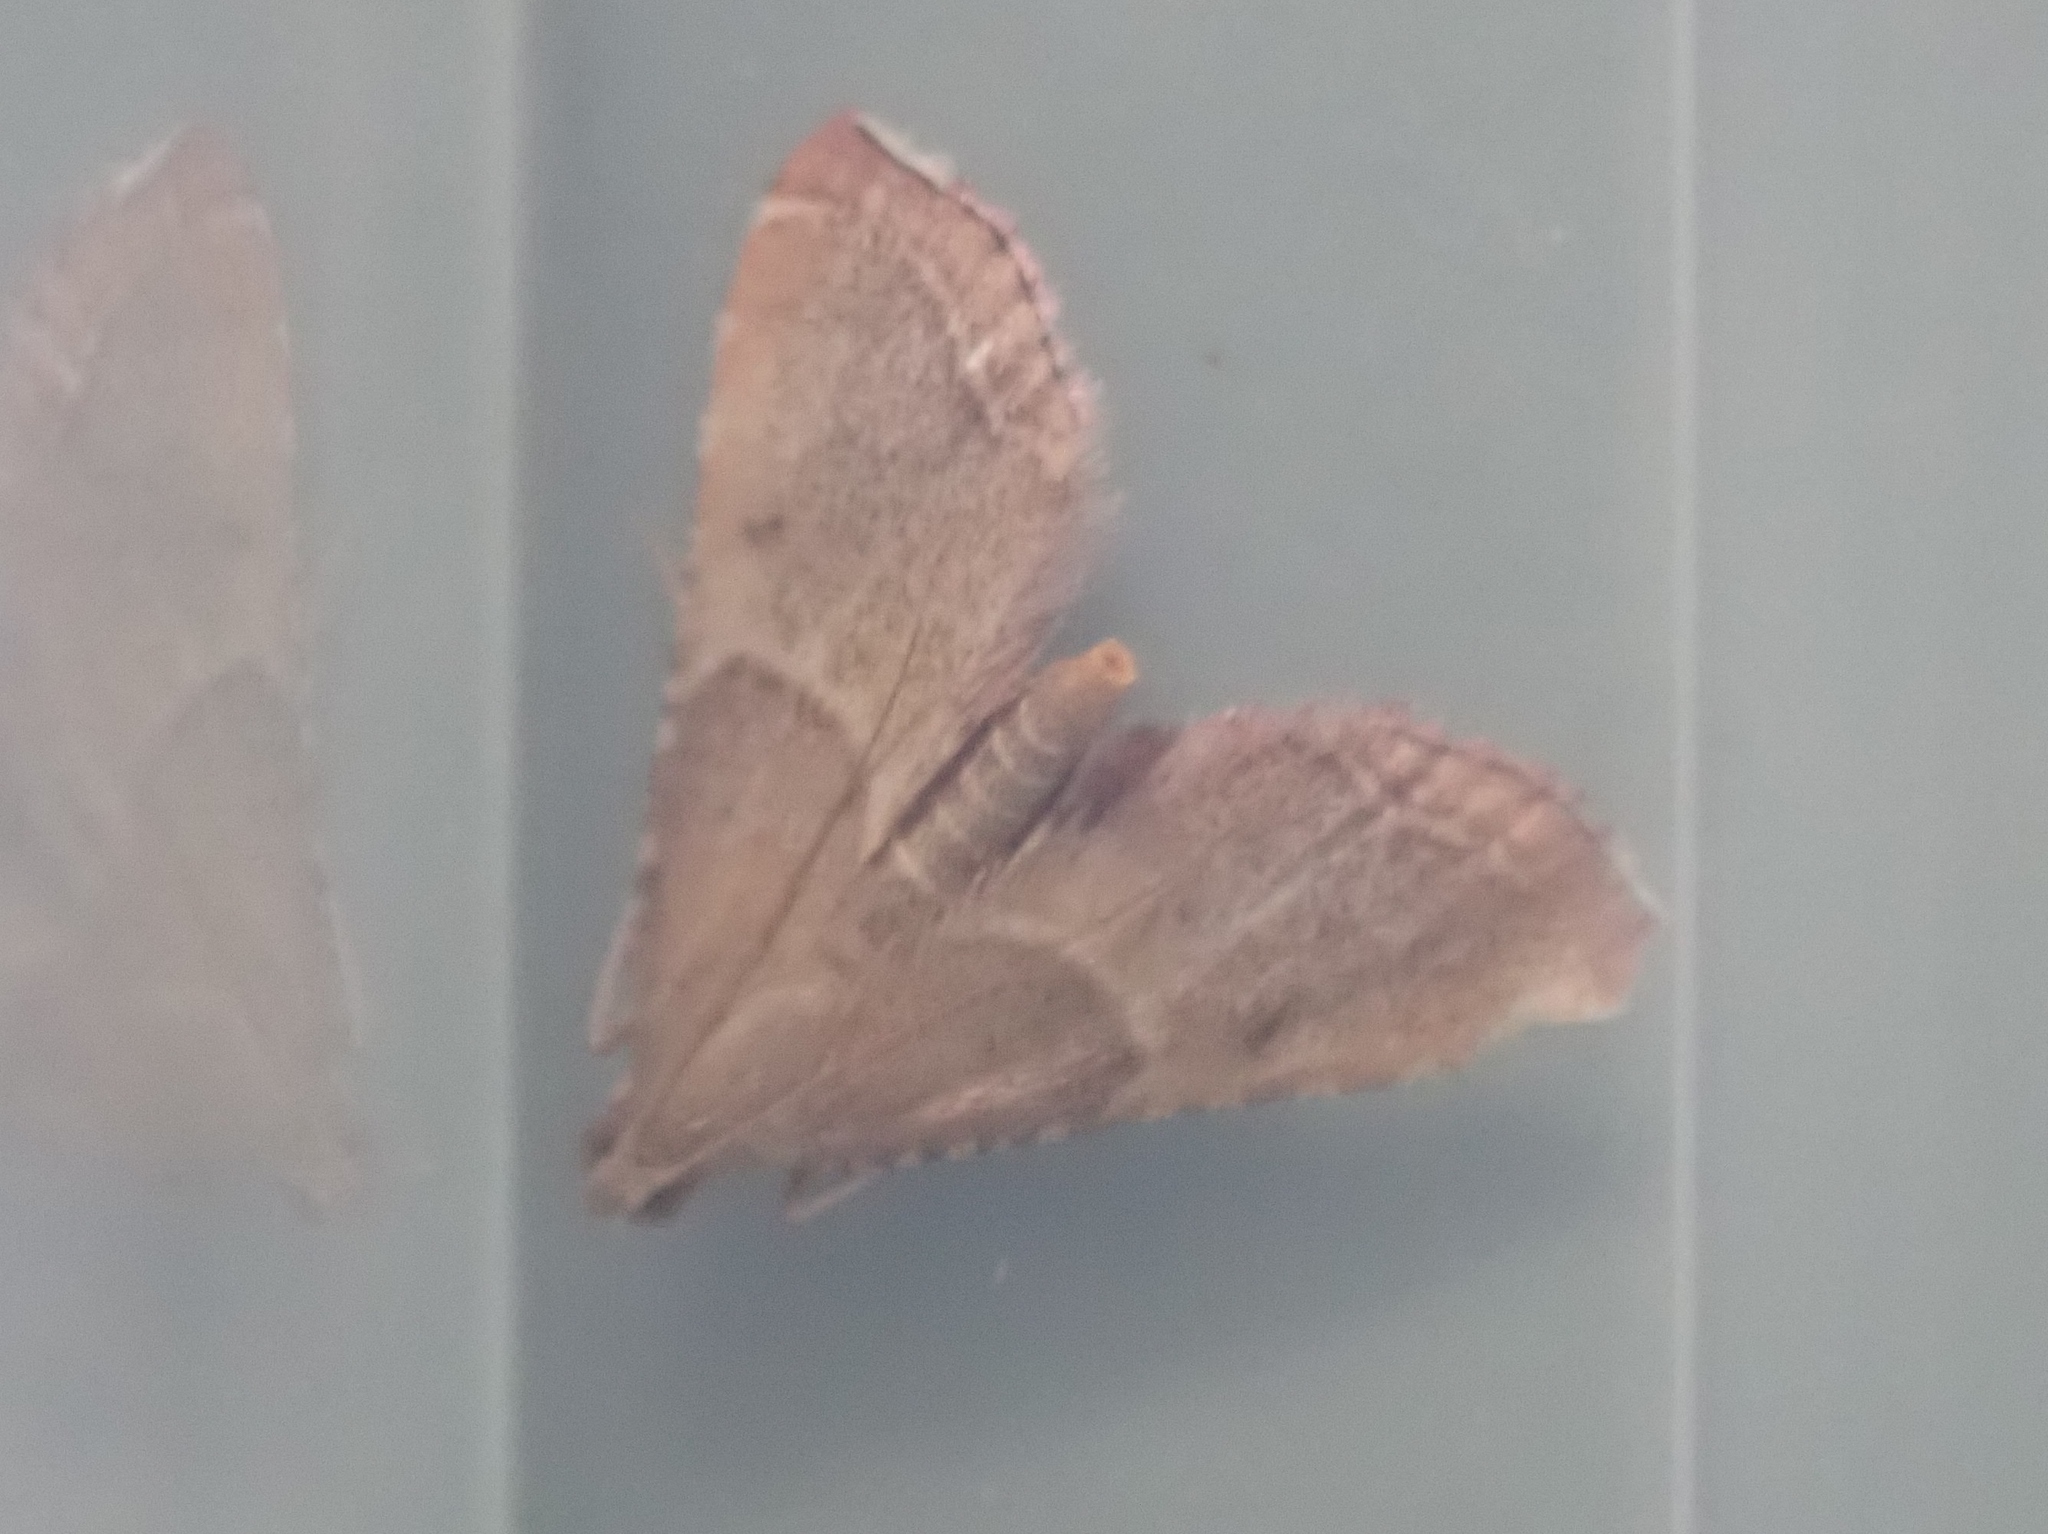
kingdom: Animalia
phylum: Arthropoda
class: Insecta
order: Lepidoptera
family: Pyralidae
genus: Endotricha
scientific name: Endotricha flammealis
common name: Rosy tabby
